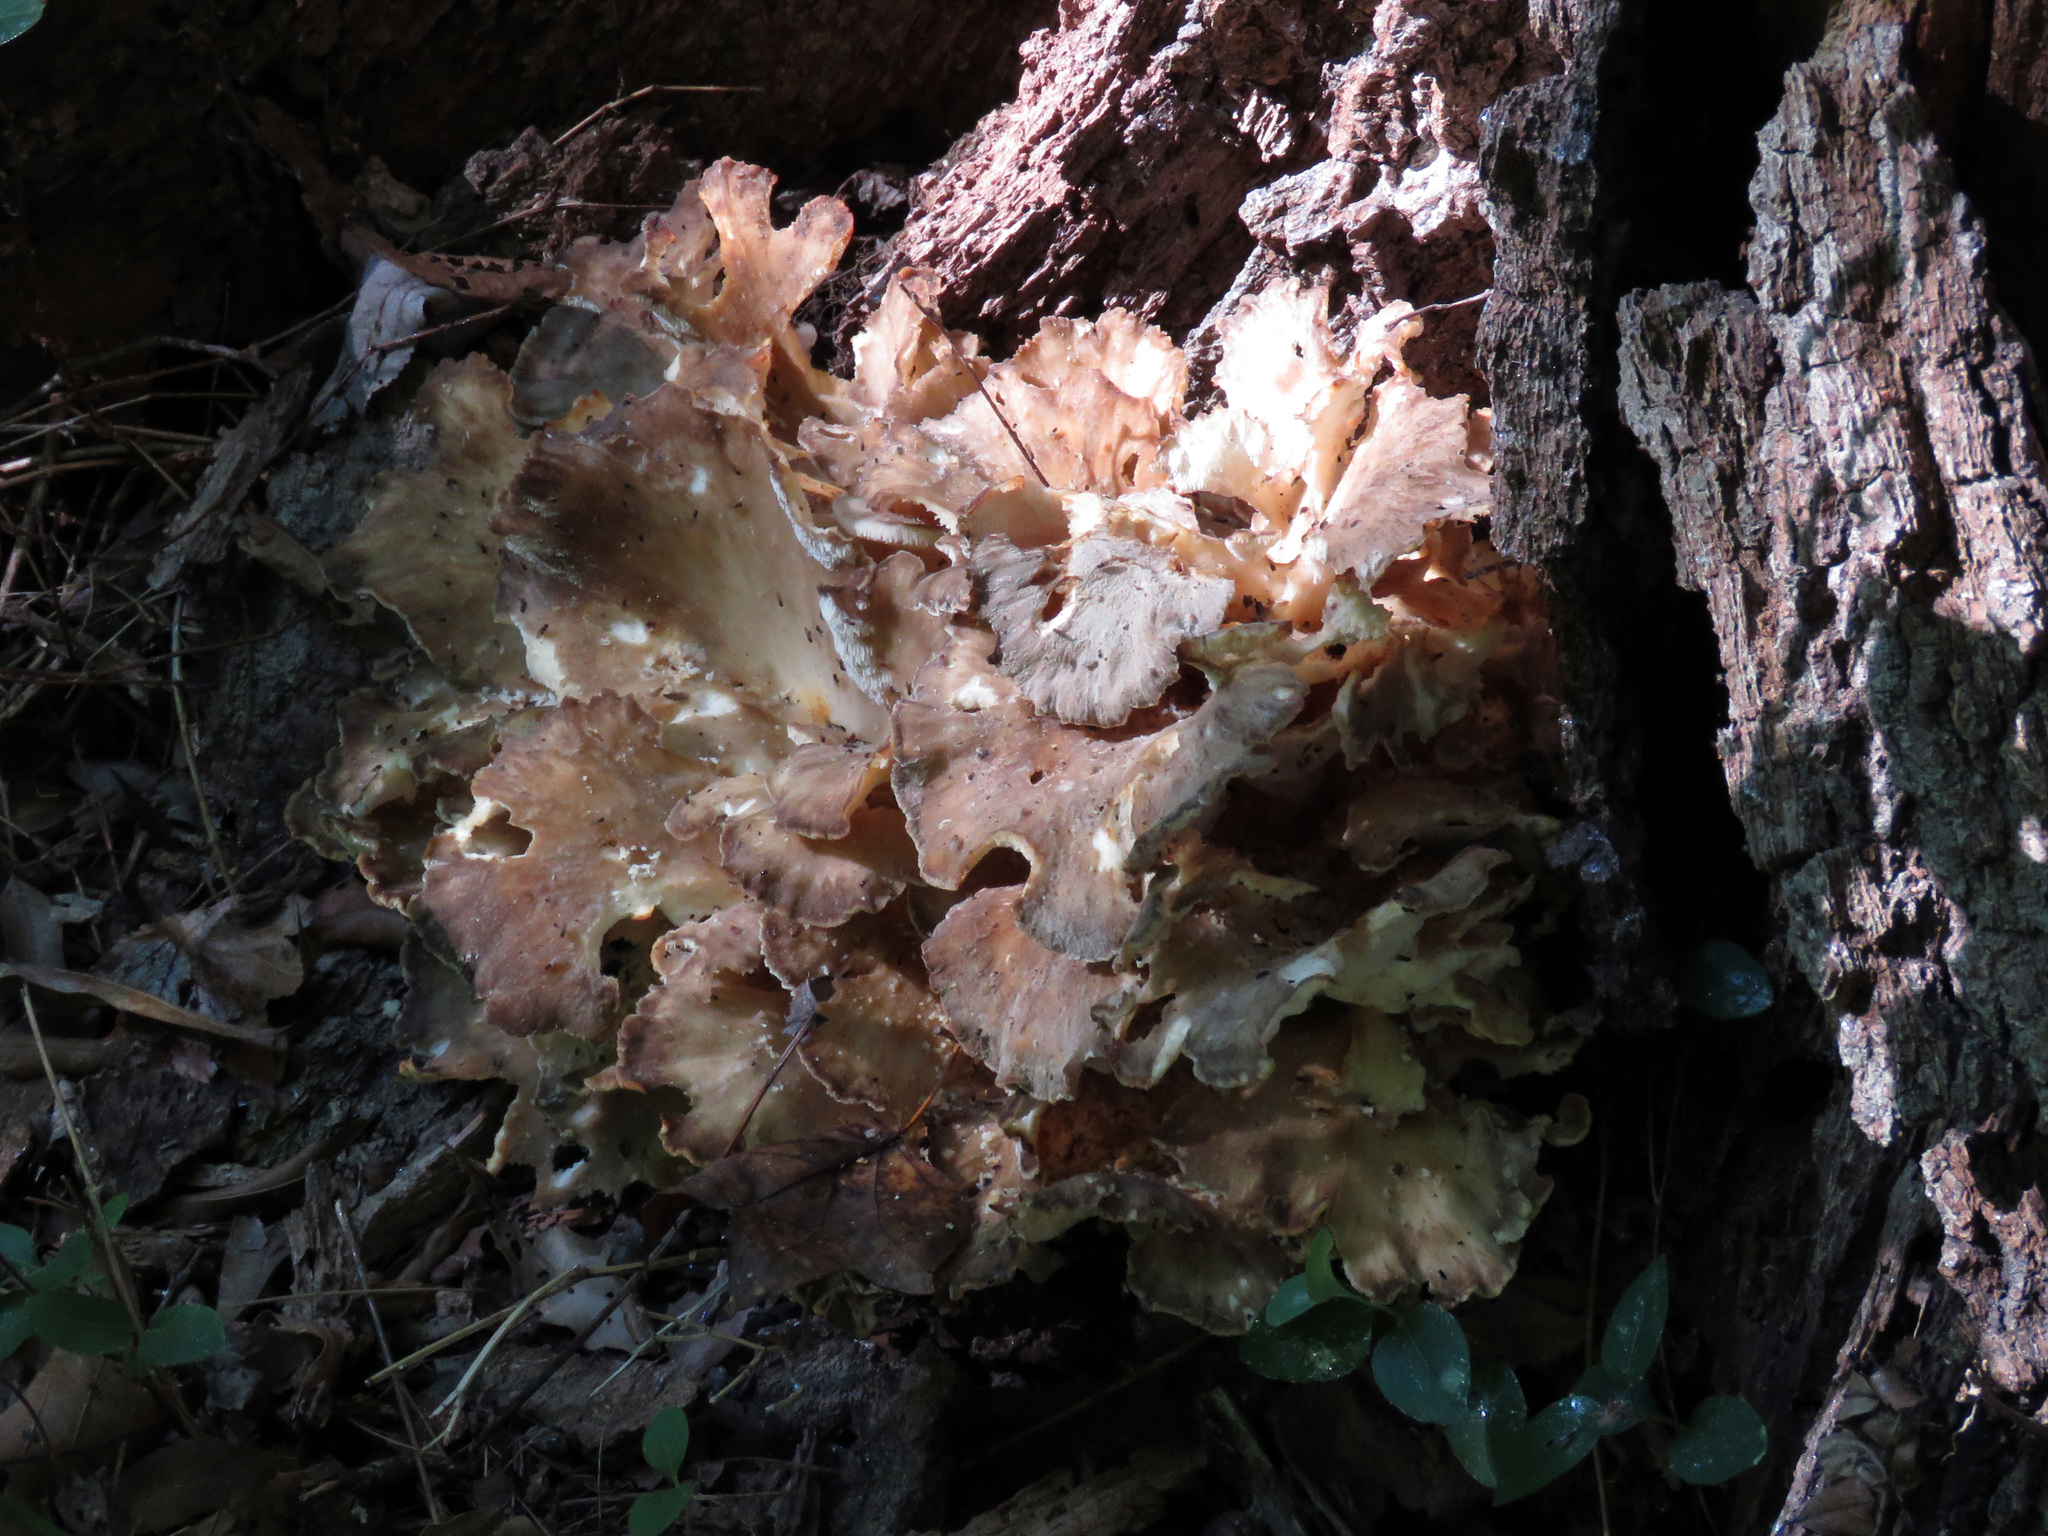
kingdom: Fungi
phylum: Basidiomycota
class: Agaricomycetes
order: Polyporales
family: Grifolaceae
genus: Grifola
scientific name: Grifola frondosa
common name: Hen of the woods
